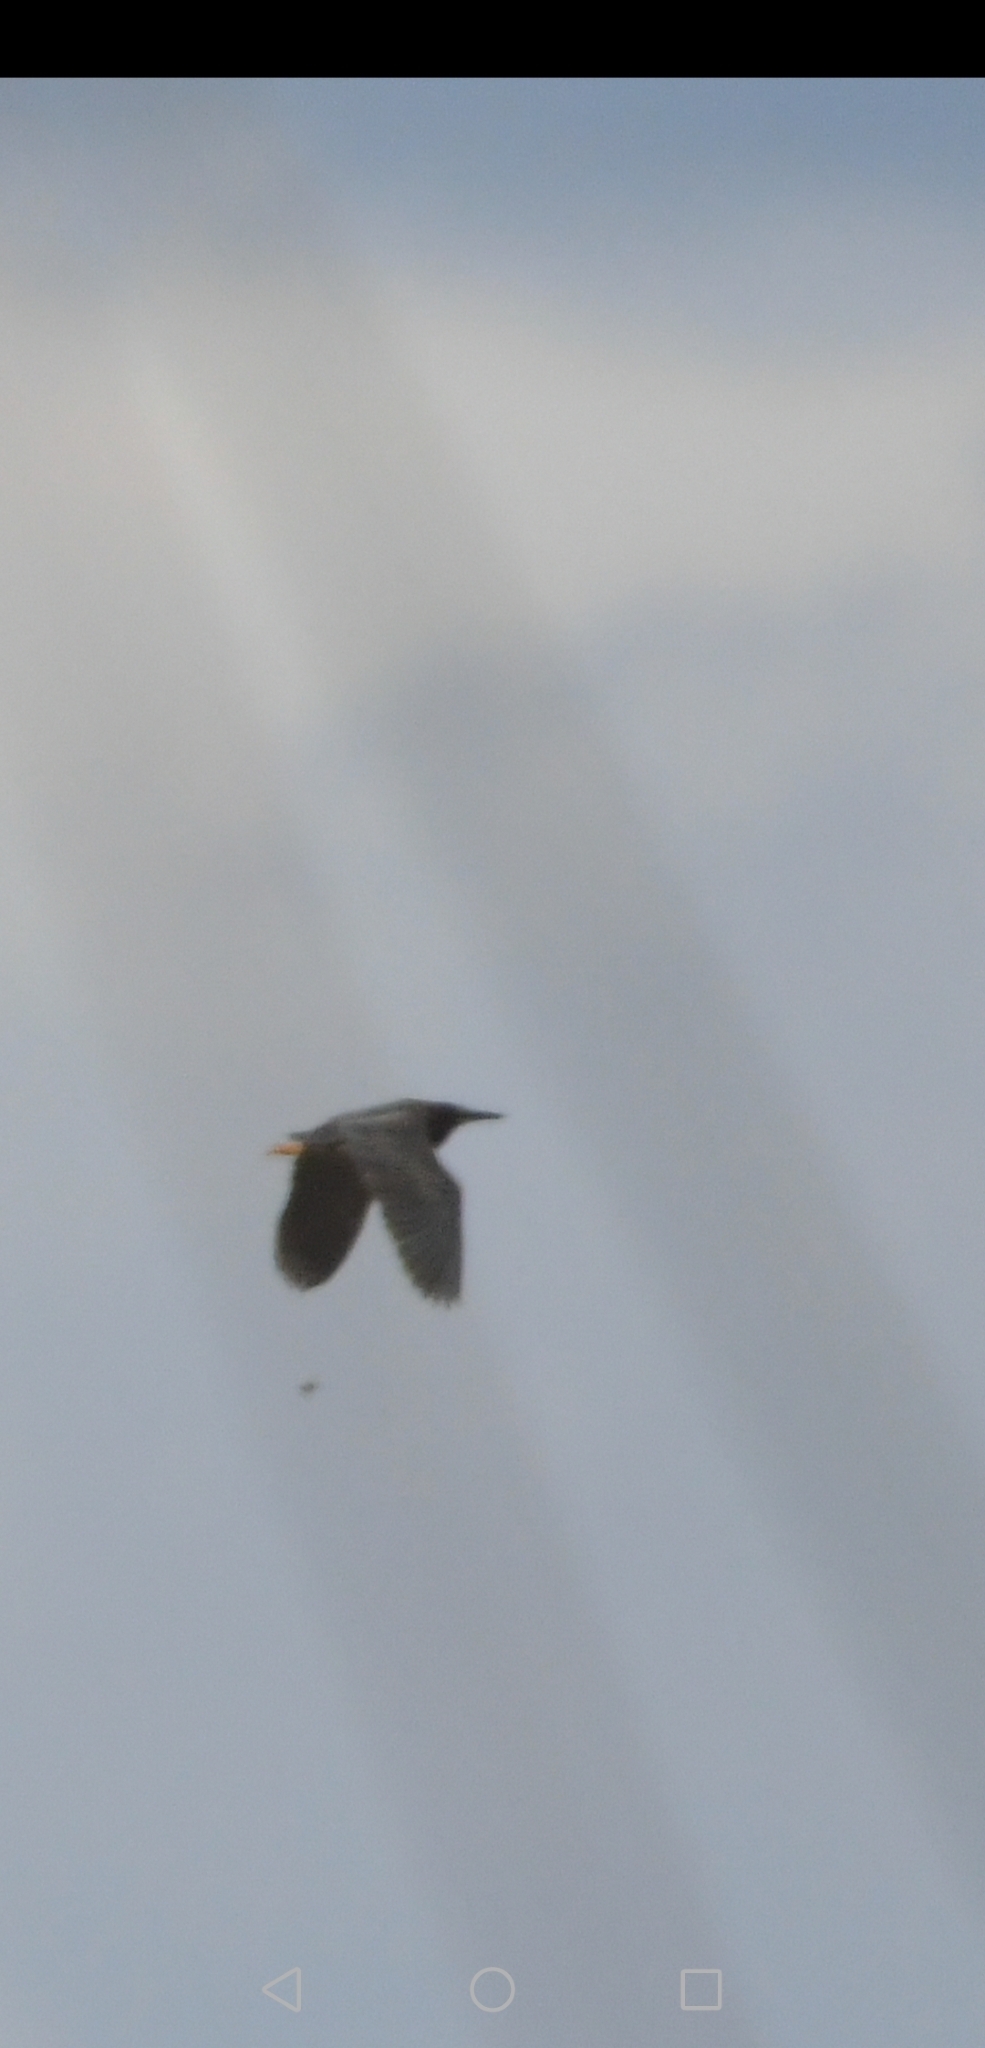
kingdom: Animalia
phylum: Chordata
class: Aves
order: Pelecaniformes
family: Ardeidae
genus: Butorides
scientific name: Butorides virescens
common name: Green heron
